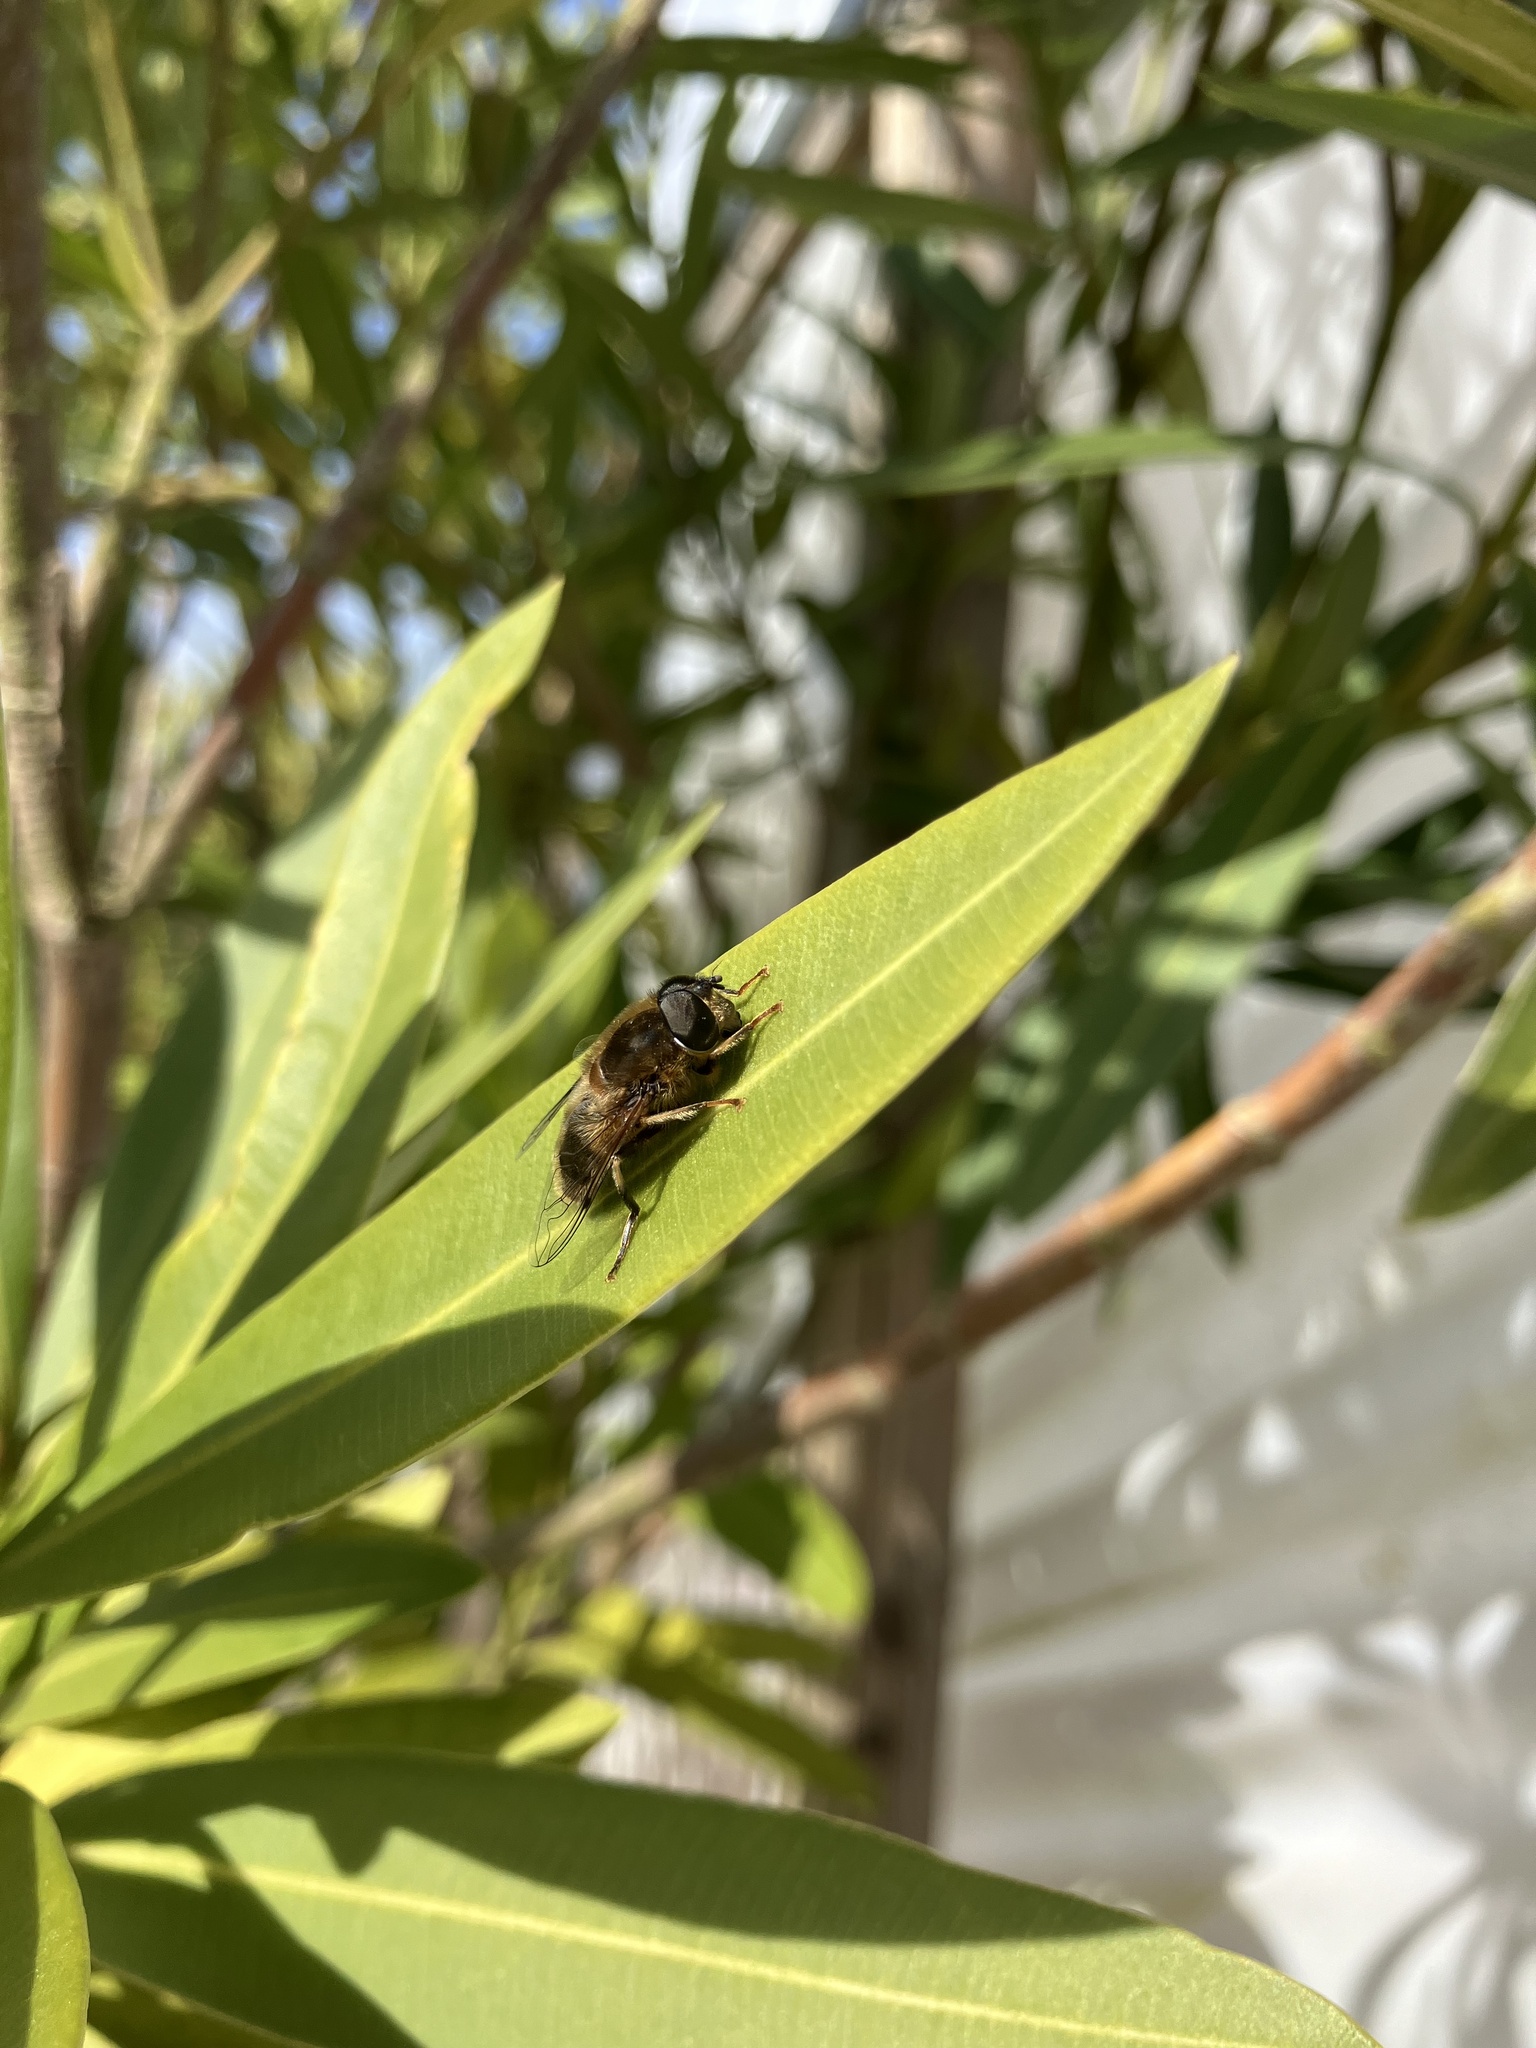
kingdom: Animalia
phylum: Arthropoda
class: Insecta
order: Diptera
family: Syrphidae
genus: Eristalis
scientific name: Eristalis pertinax
